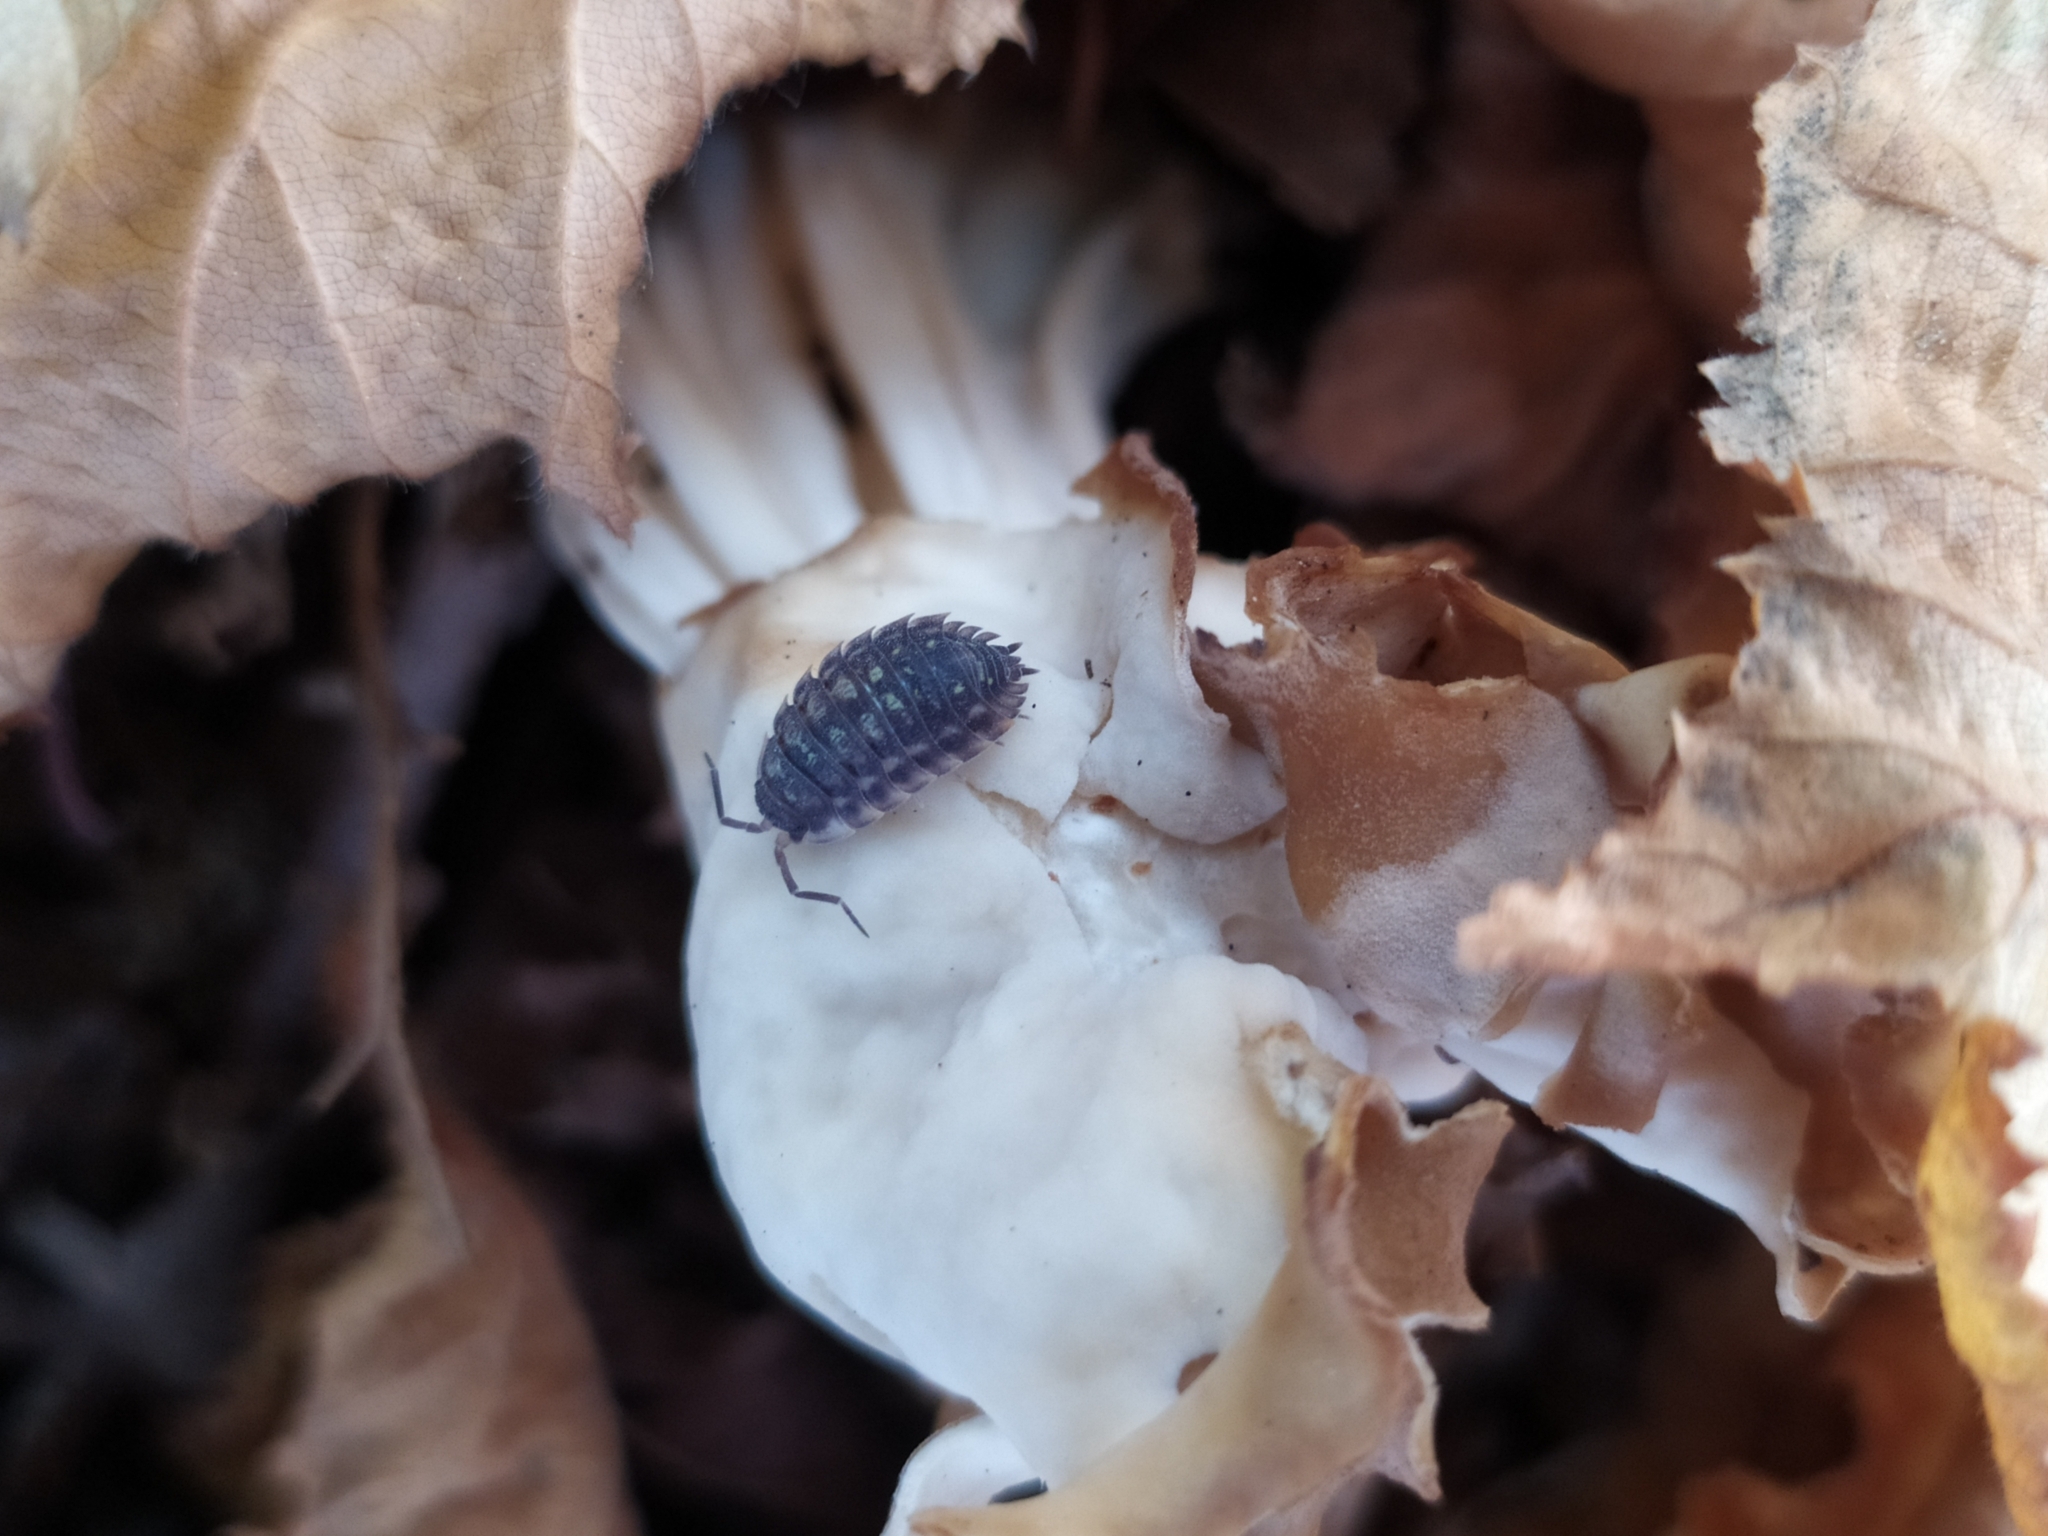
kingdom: Animalia
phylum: Arthropoda
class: Malacostraca
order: Isopoda
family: Oniscidae
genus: Oniscus
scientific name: Oniscus asellus
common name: Common shiny woodlouse
